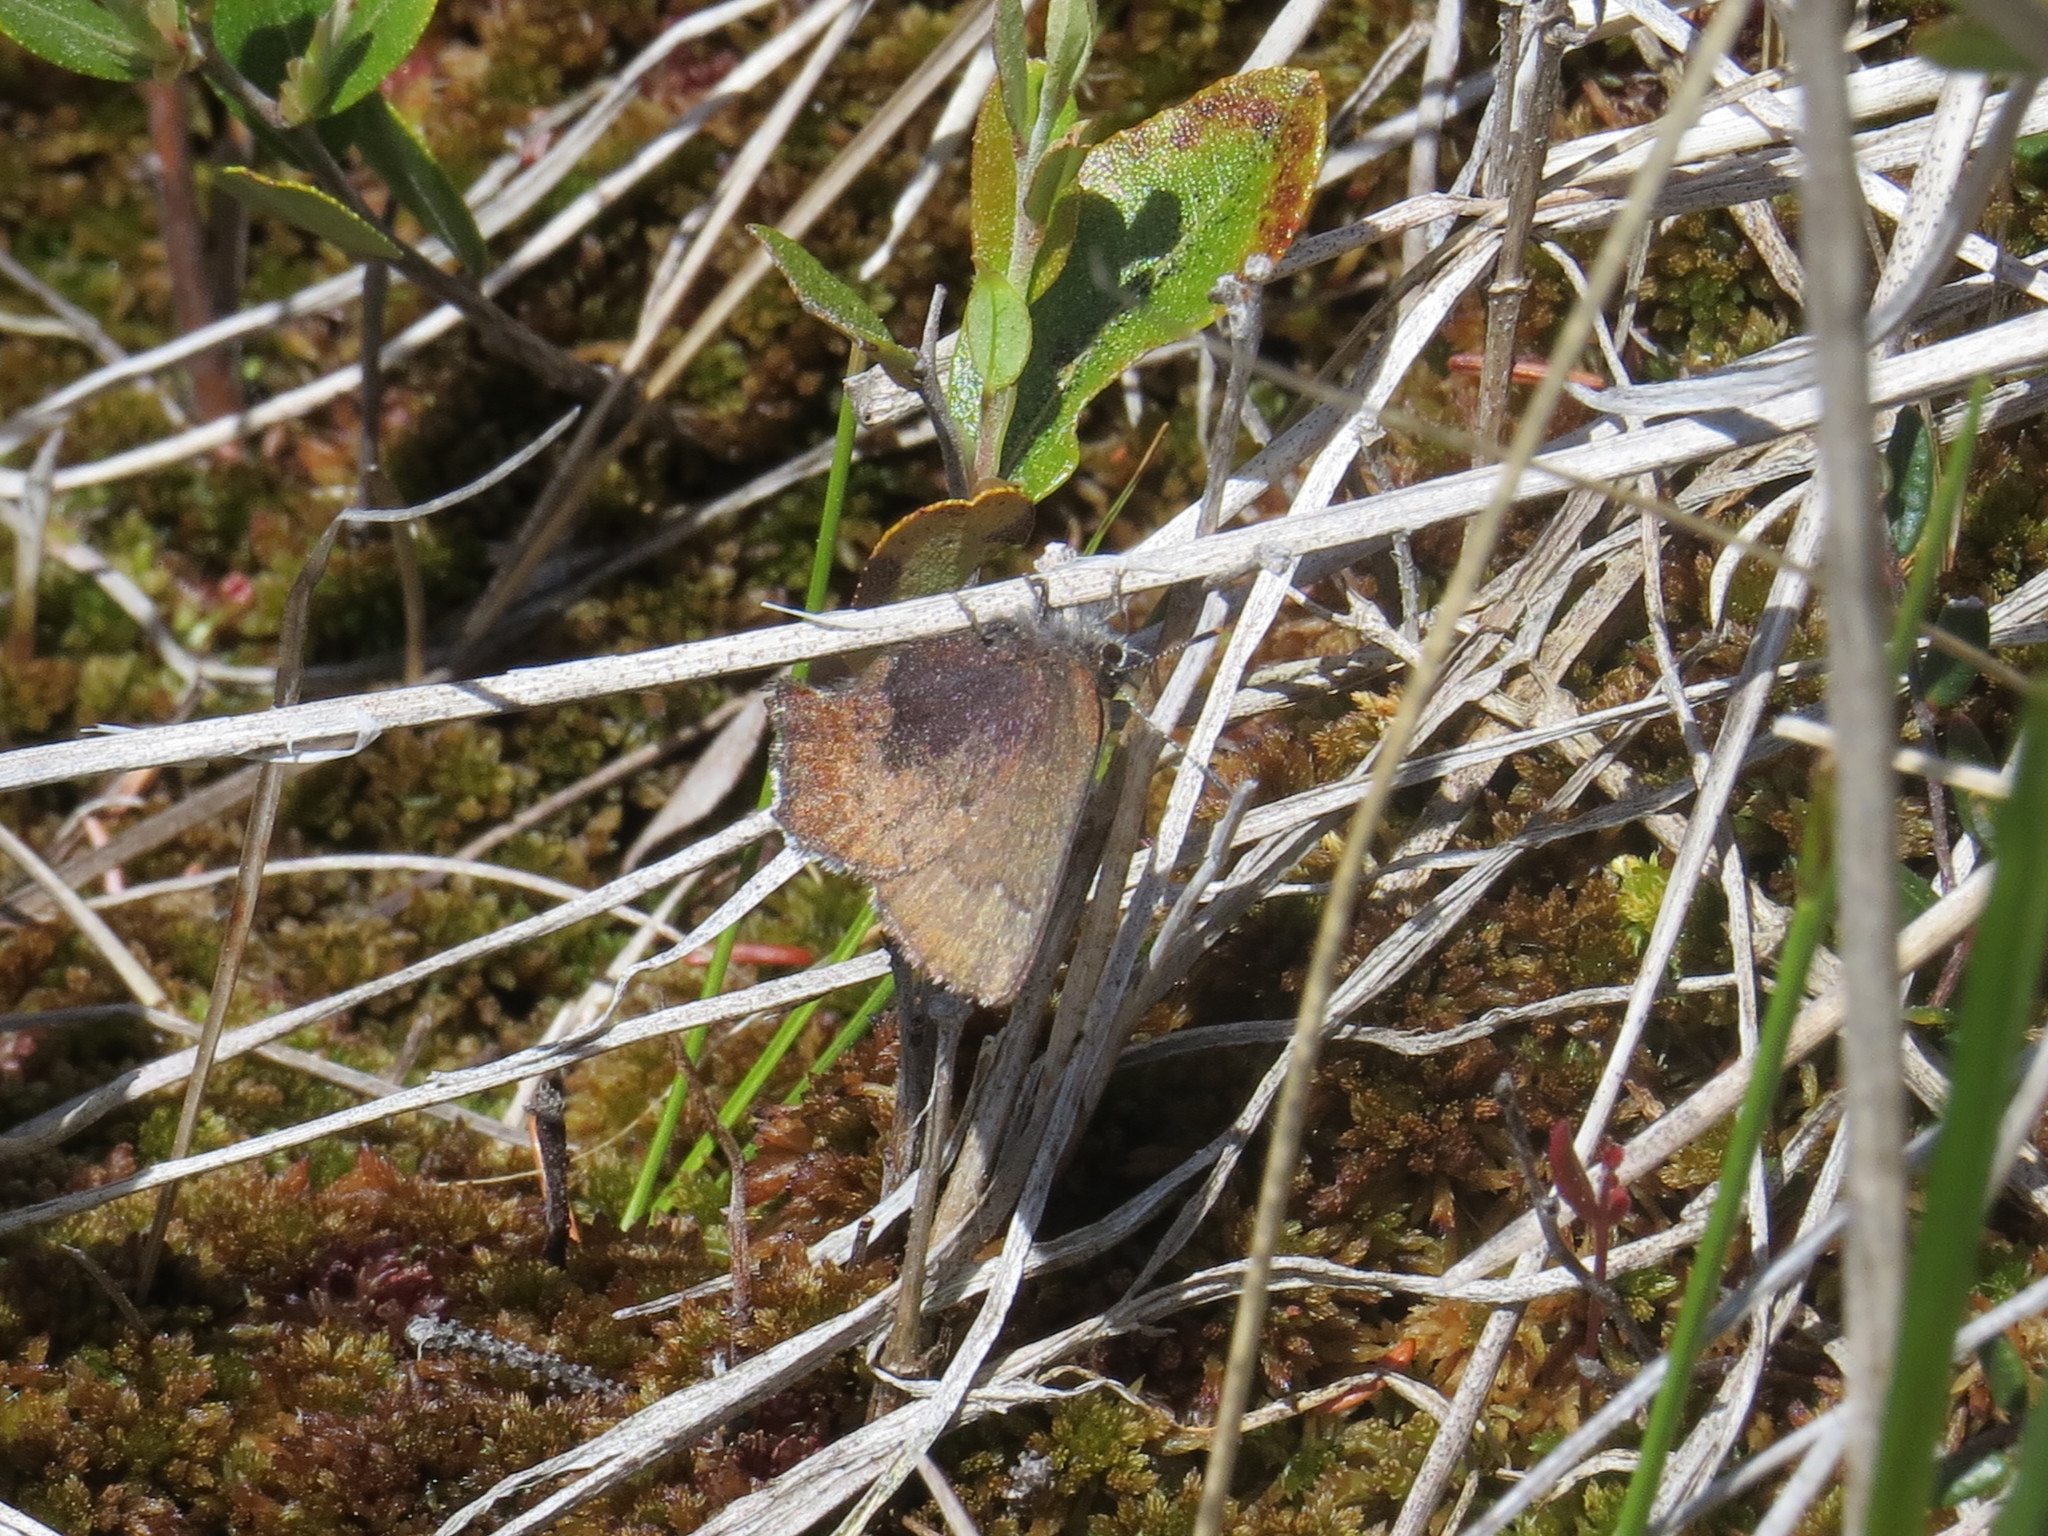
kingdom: Animalia
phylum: Arthropoda
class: Insecta
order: Lepidoptera
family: Lycaenidae
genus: Incisalia
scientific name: Incisalia irioides
